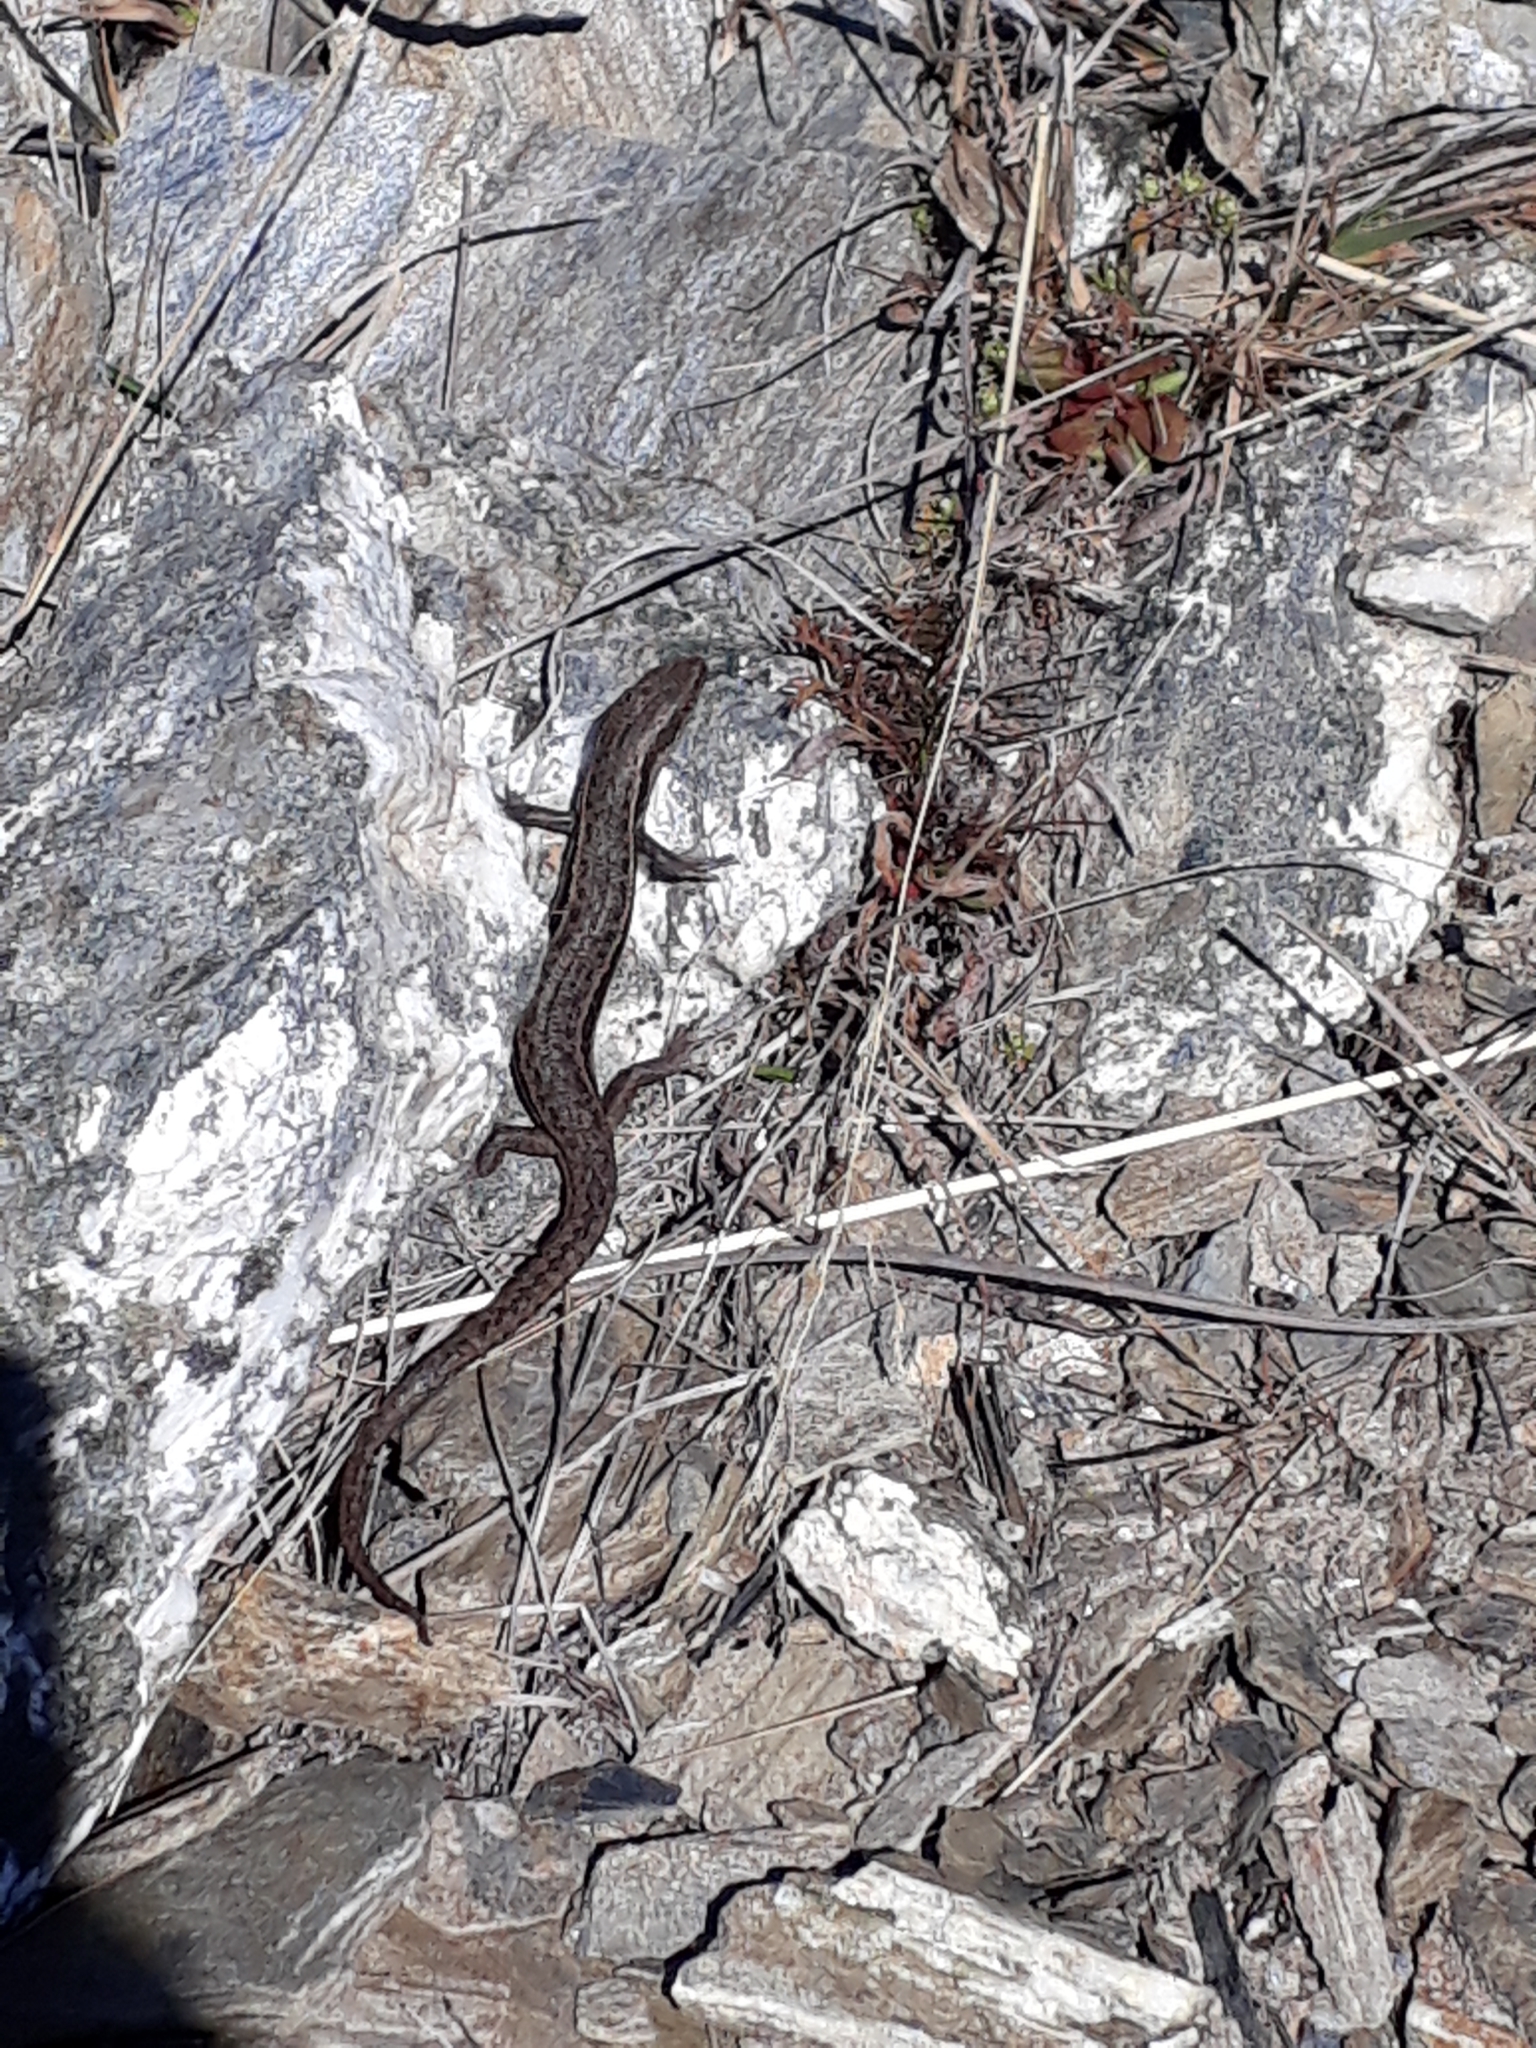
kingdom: Animalia
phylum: Chordata
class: Squamata
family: Scincidae
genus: Oligosoma
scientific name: Oligosoma maccanni
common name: Mccann’s skink
